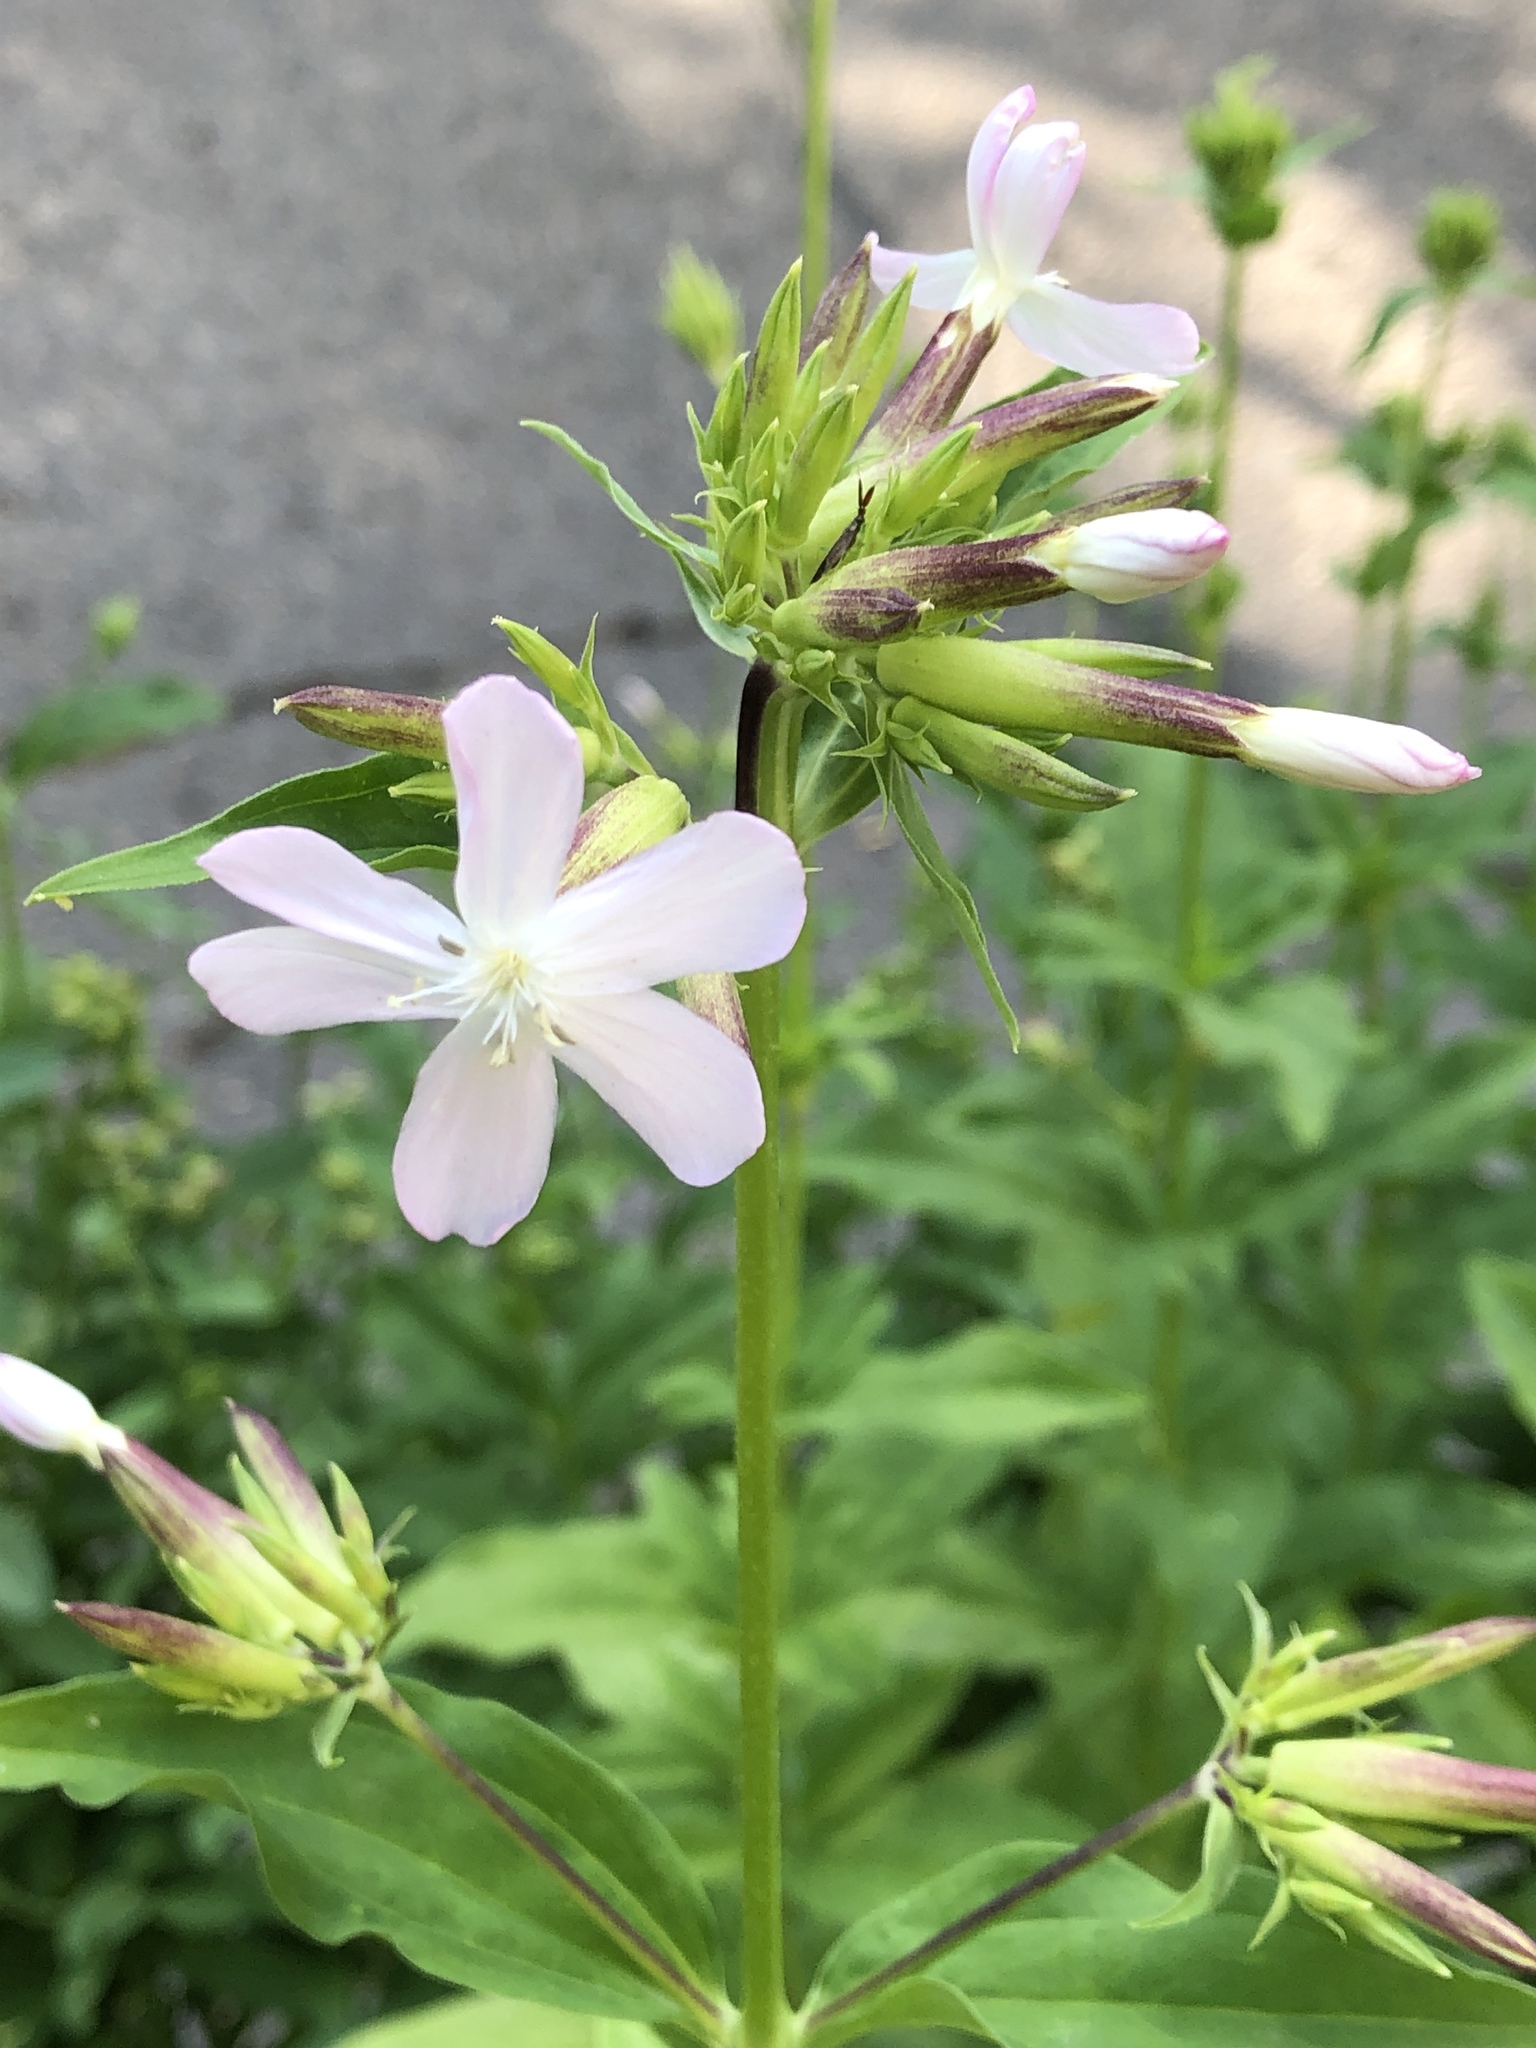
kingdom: Plantae
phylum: Tracheophyta
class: Magnoliopsida
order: Caryophyllales
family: Caryophyllaceae
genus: Saponaria
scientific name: Saponaria officinalis
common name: Soapwort
